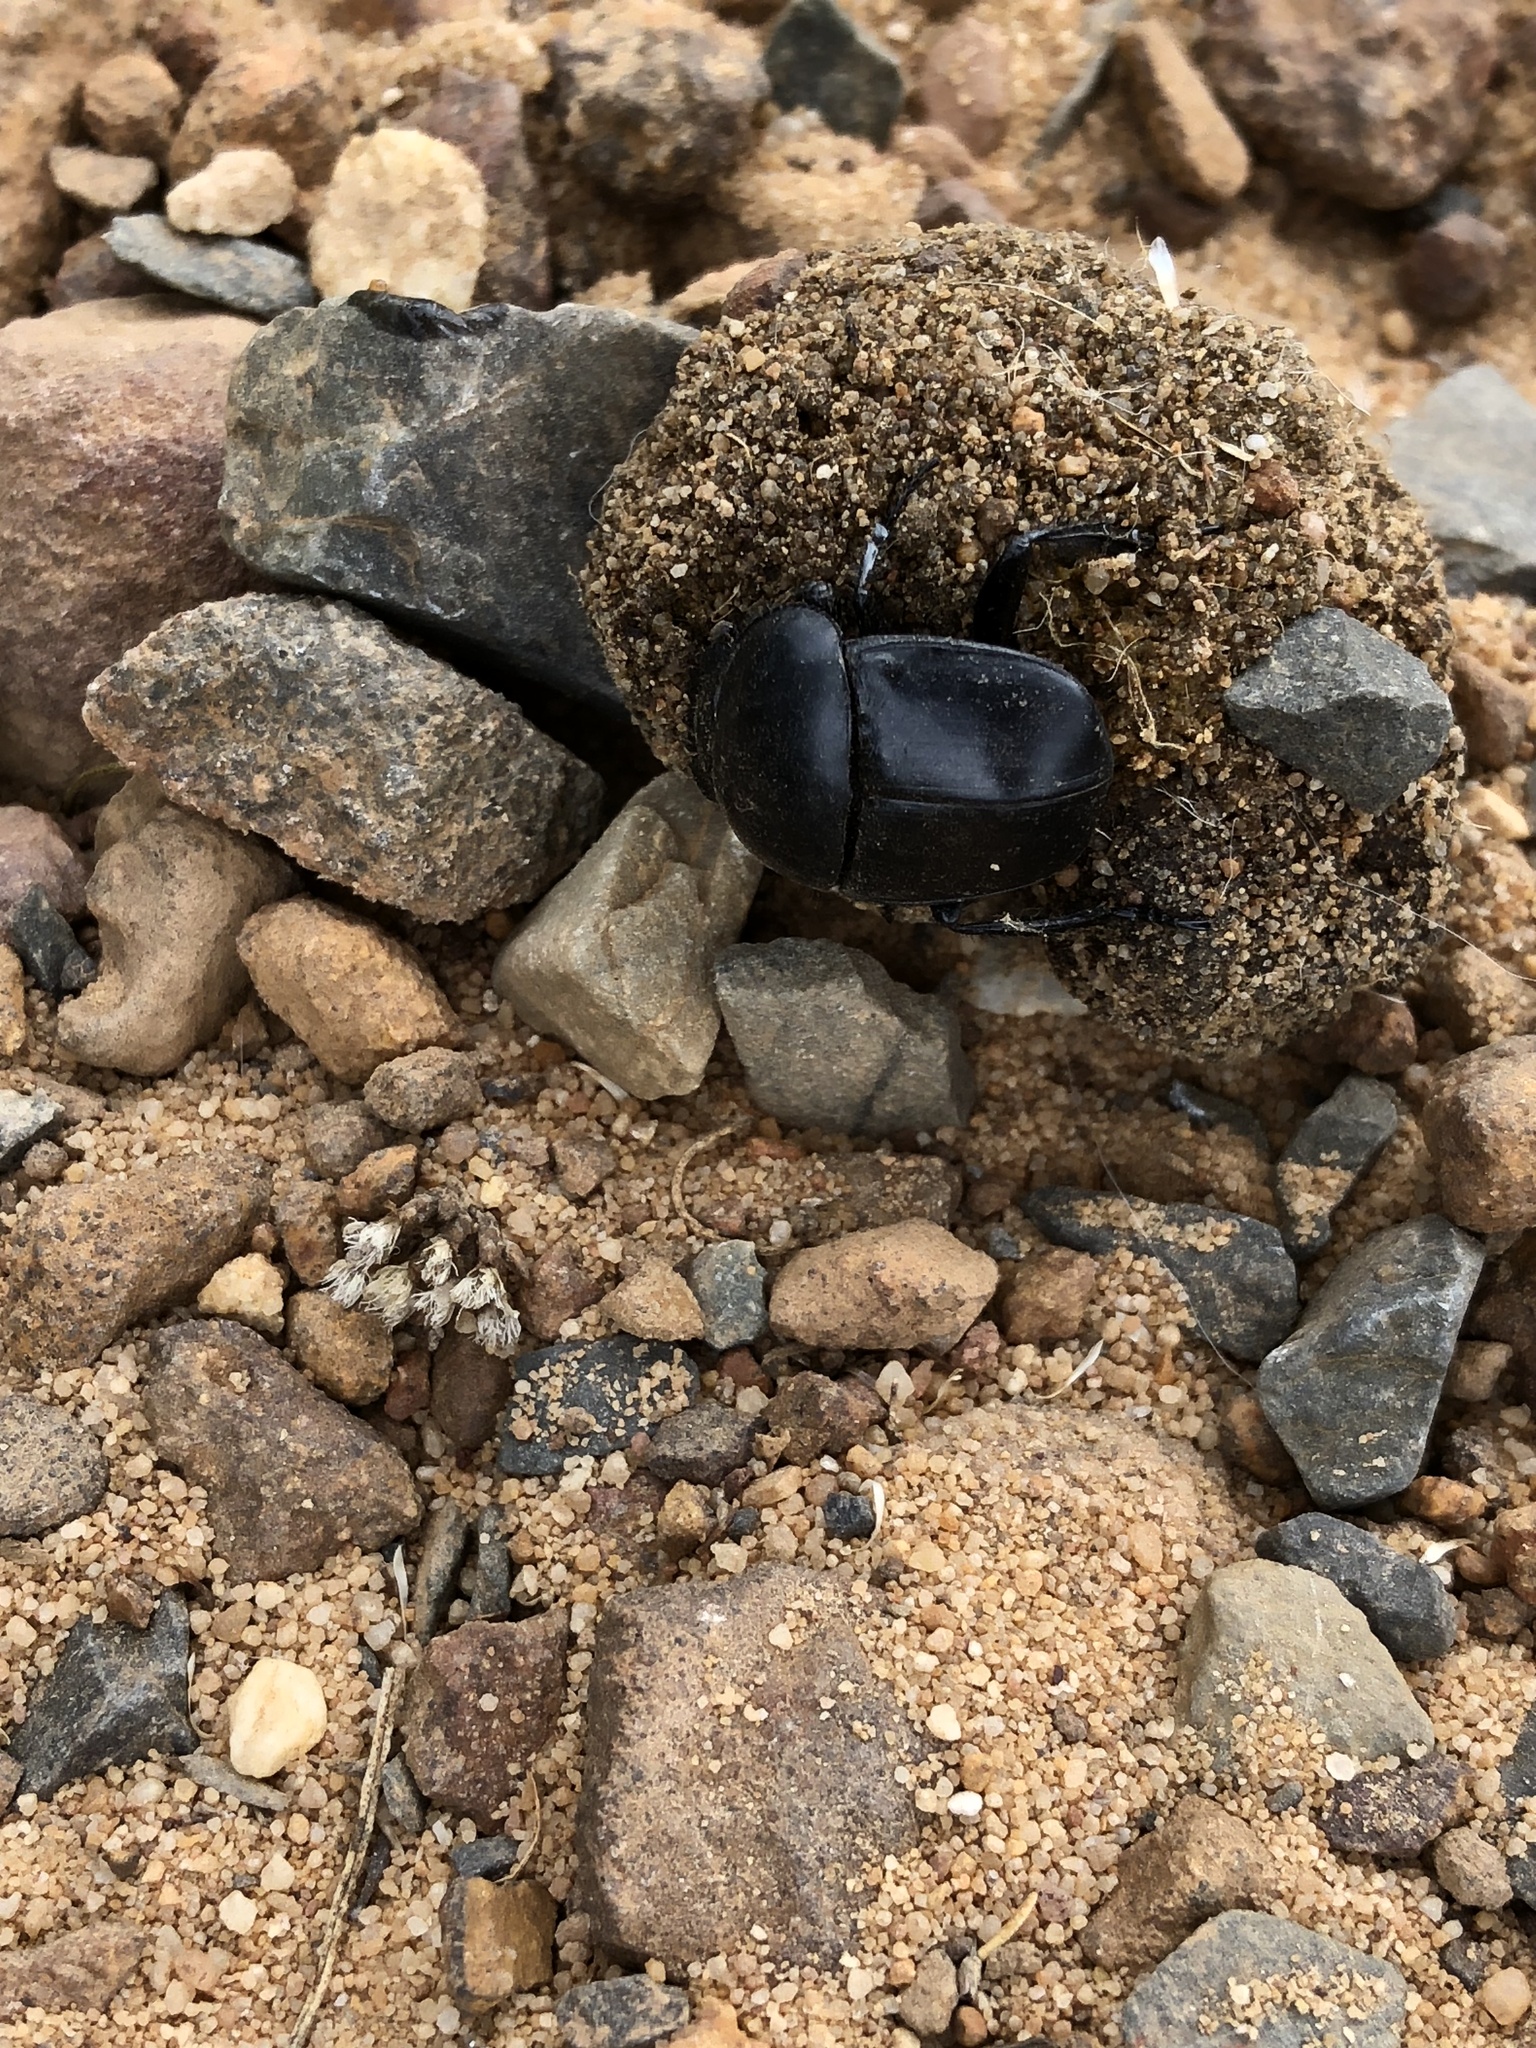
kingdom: Animalia
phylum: Arthropoda
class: Insecta
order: Coleoptera
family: Scarabaeidae
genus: Scarabaeus
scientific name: Scarabaeus convexus
